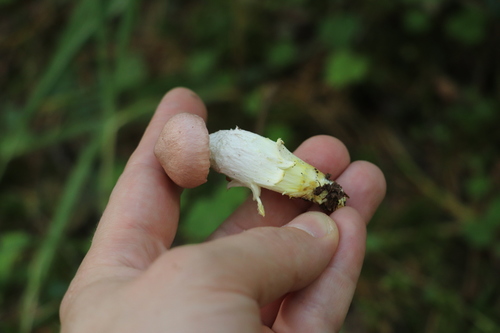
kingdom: Fungi
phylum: Basidiomycota
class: Agaricomycetes
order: Boletales
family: Gomphidiaceae
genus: Gomphidius
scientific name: Gomphidius flavipes
